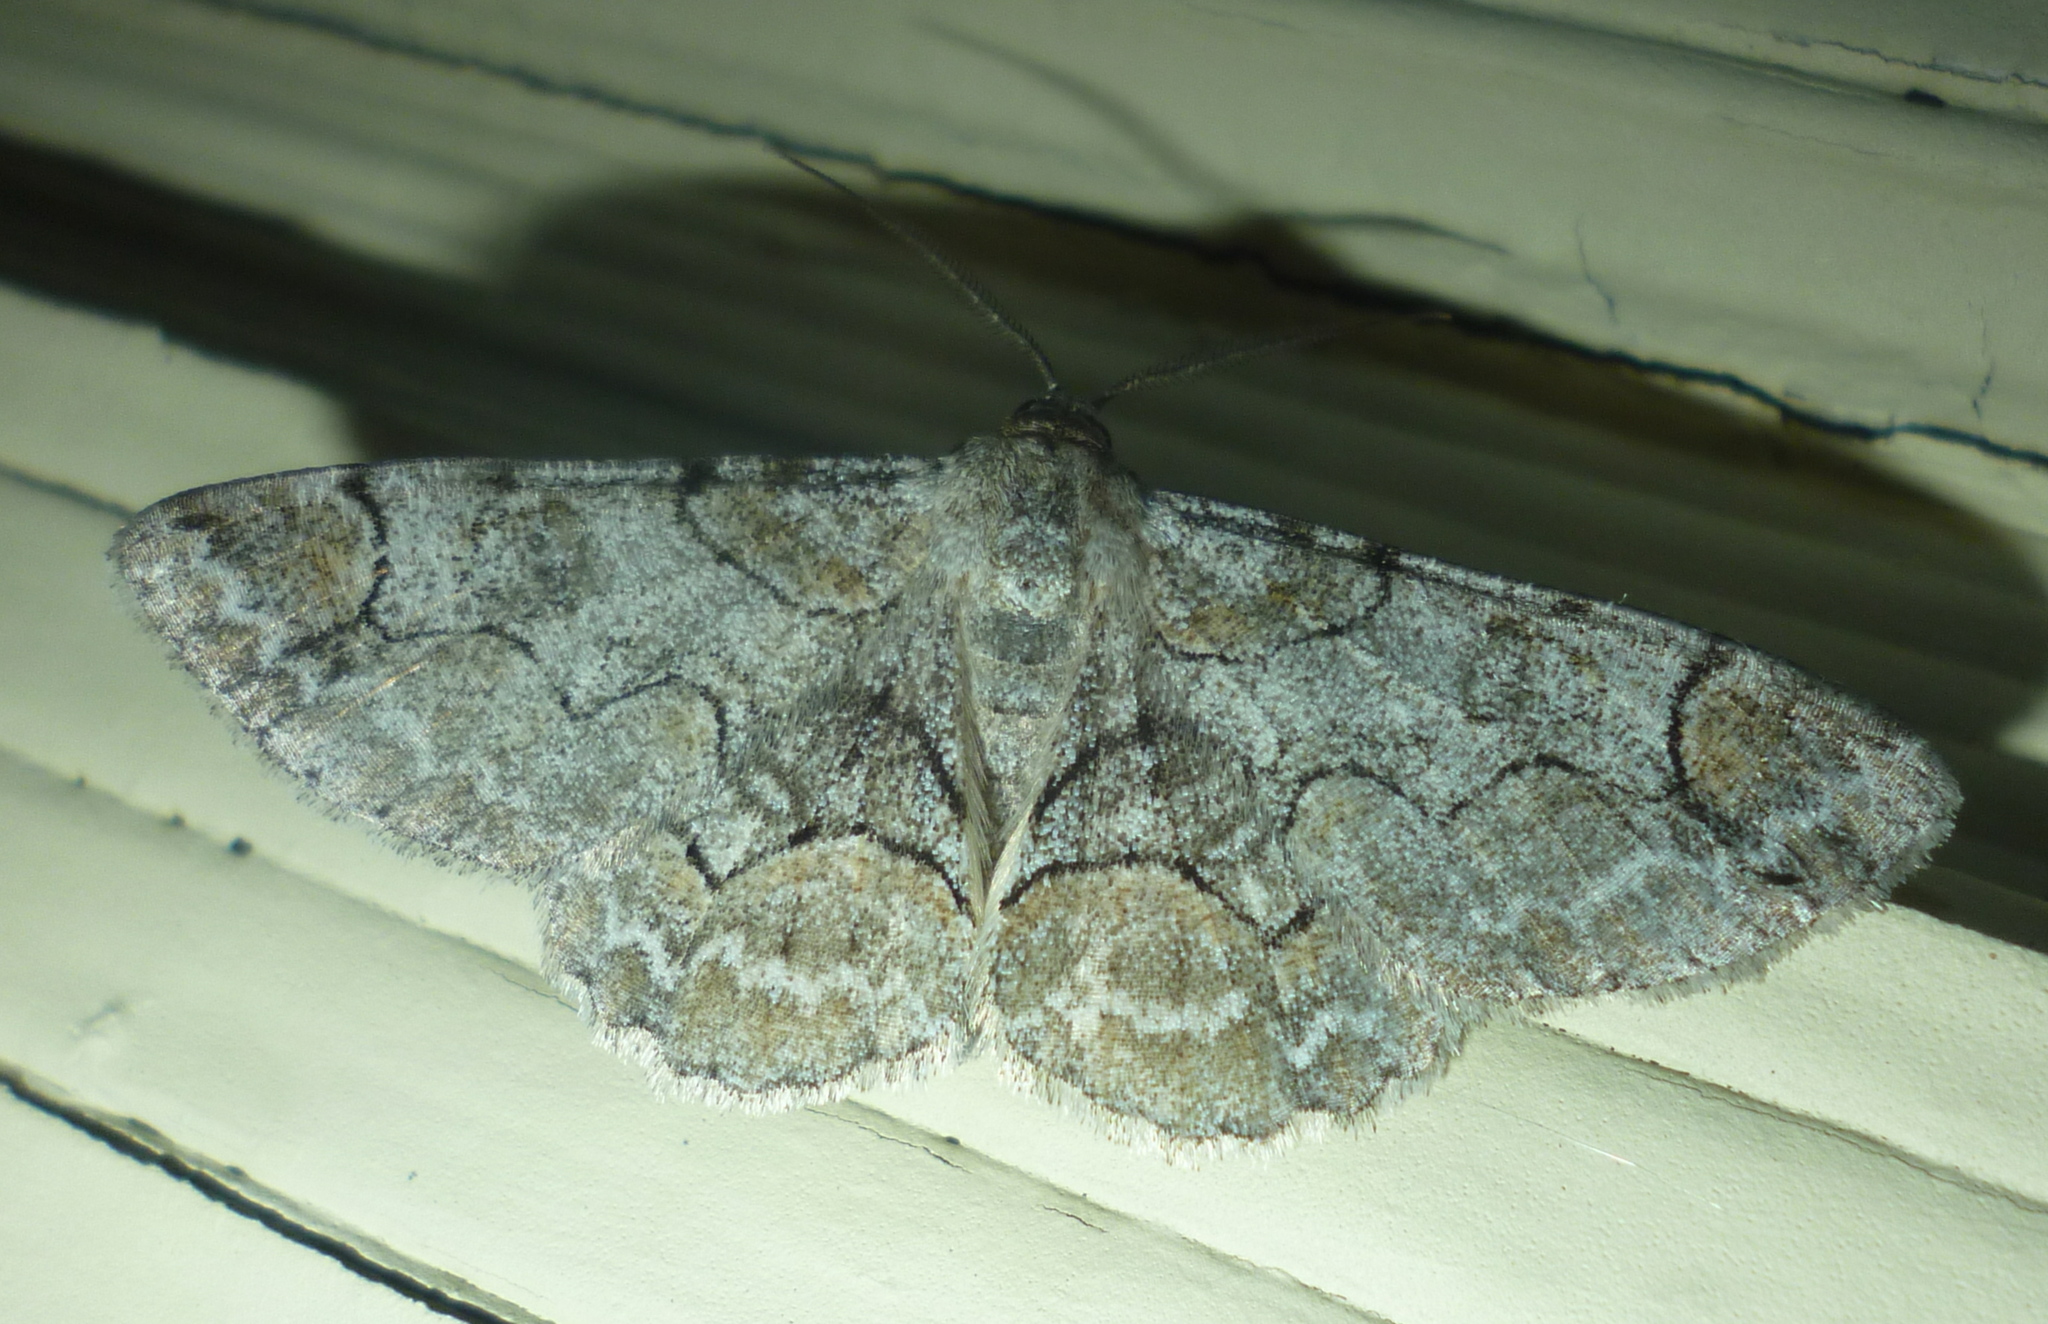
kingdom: Animalia
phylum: Arthropoda
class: Insecta
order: Lepidoptera
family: Geometridae
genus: Iridopsis
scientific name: Iridopsis larvaria
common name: Bent-line gray
